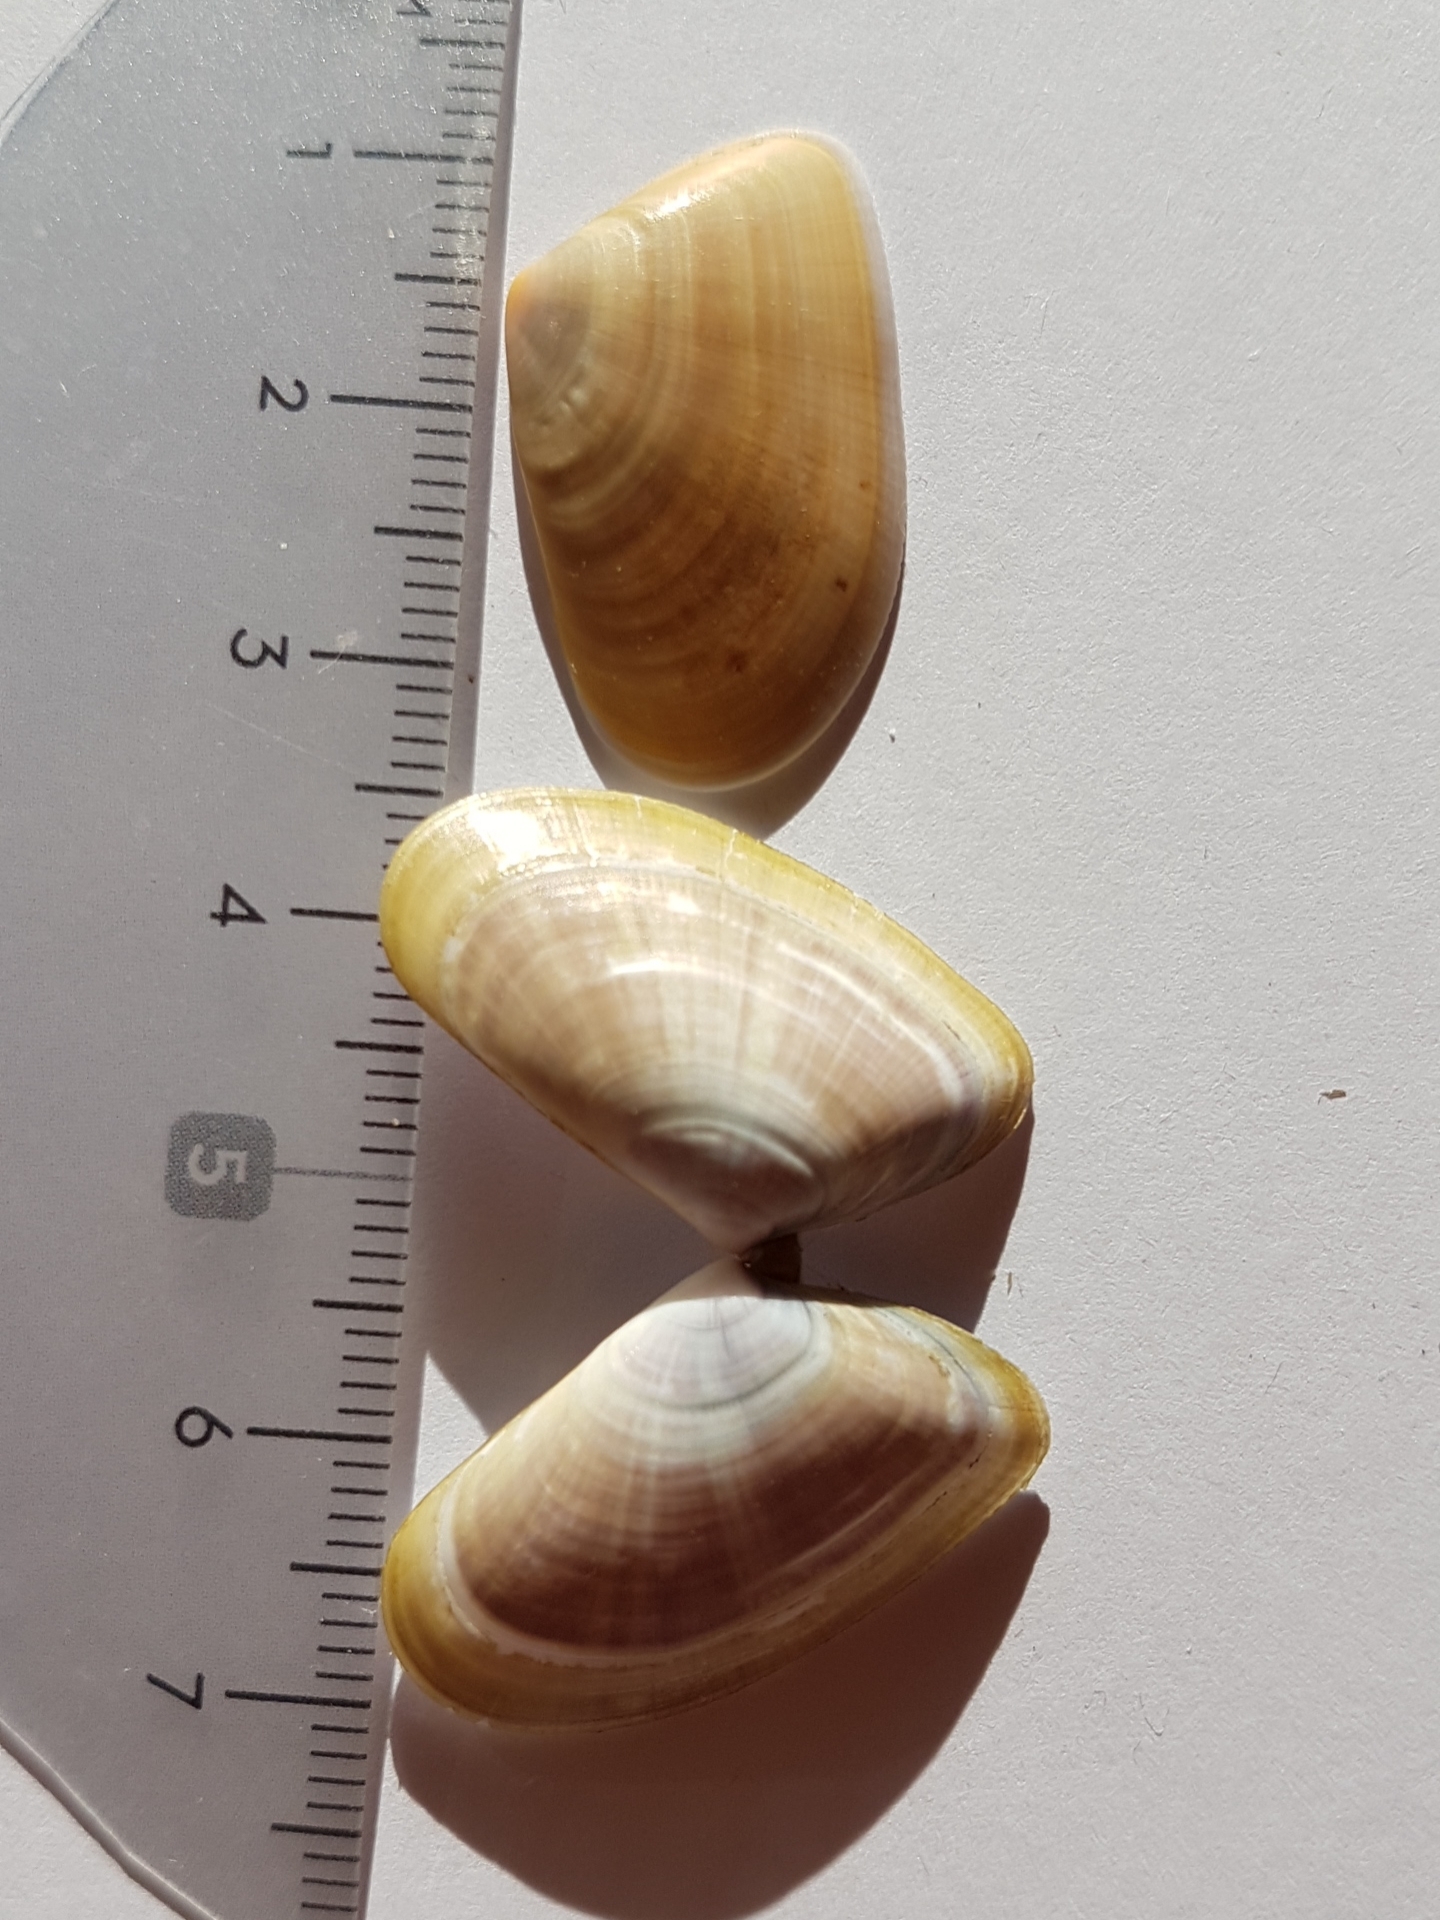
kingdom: Animalia
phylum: Mollusca
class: Bivalvia
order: Cardiida
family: Donacidae
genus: Donax
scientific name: Donax trunculus
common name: Truncate donax
